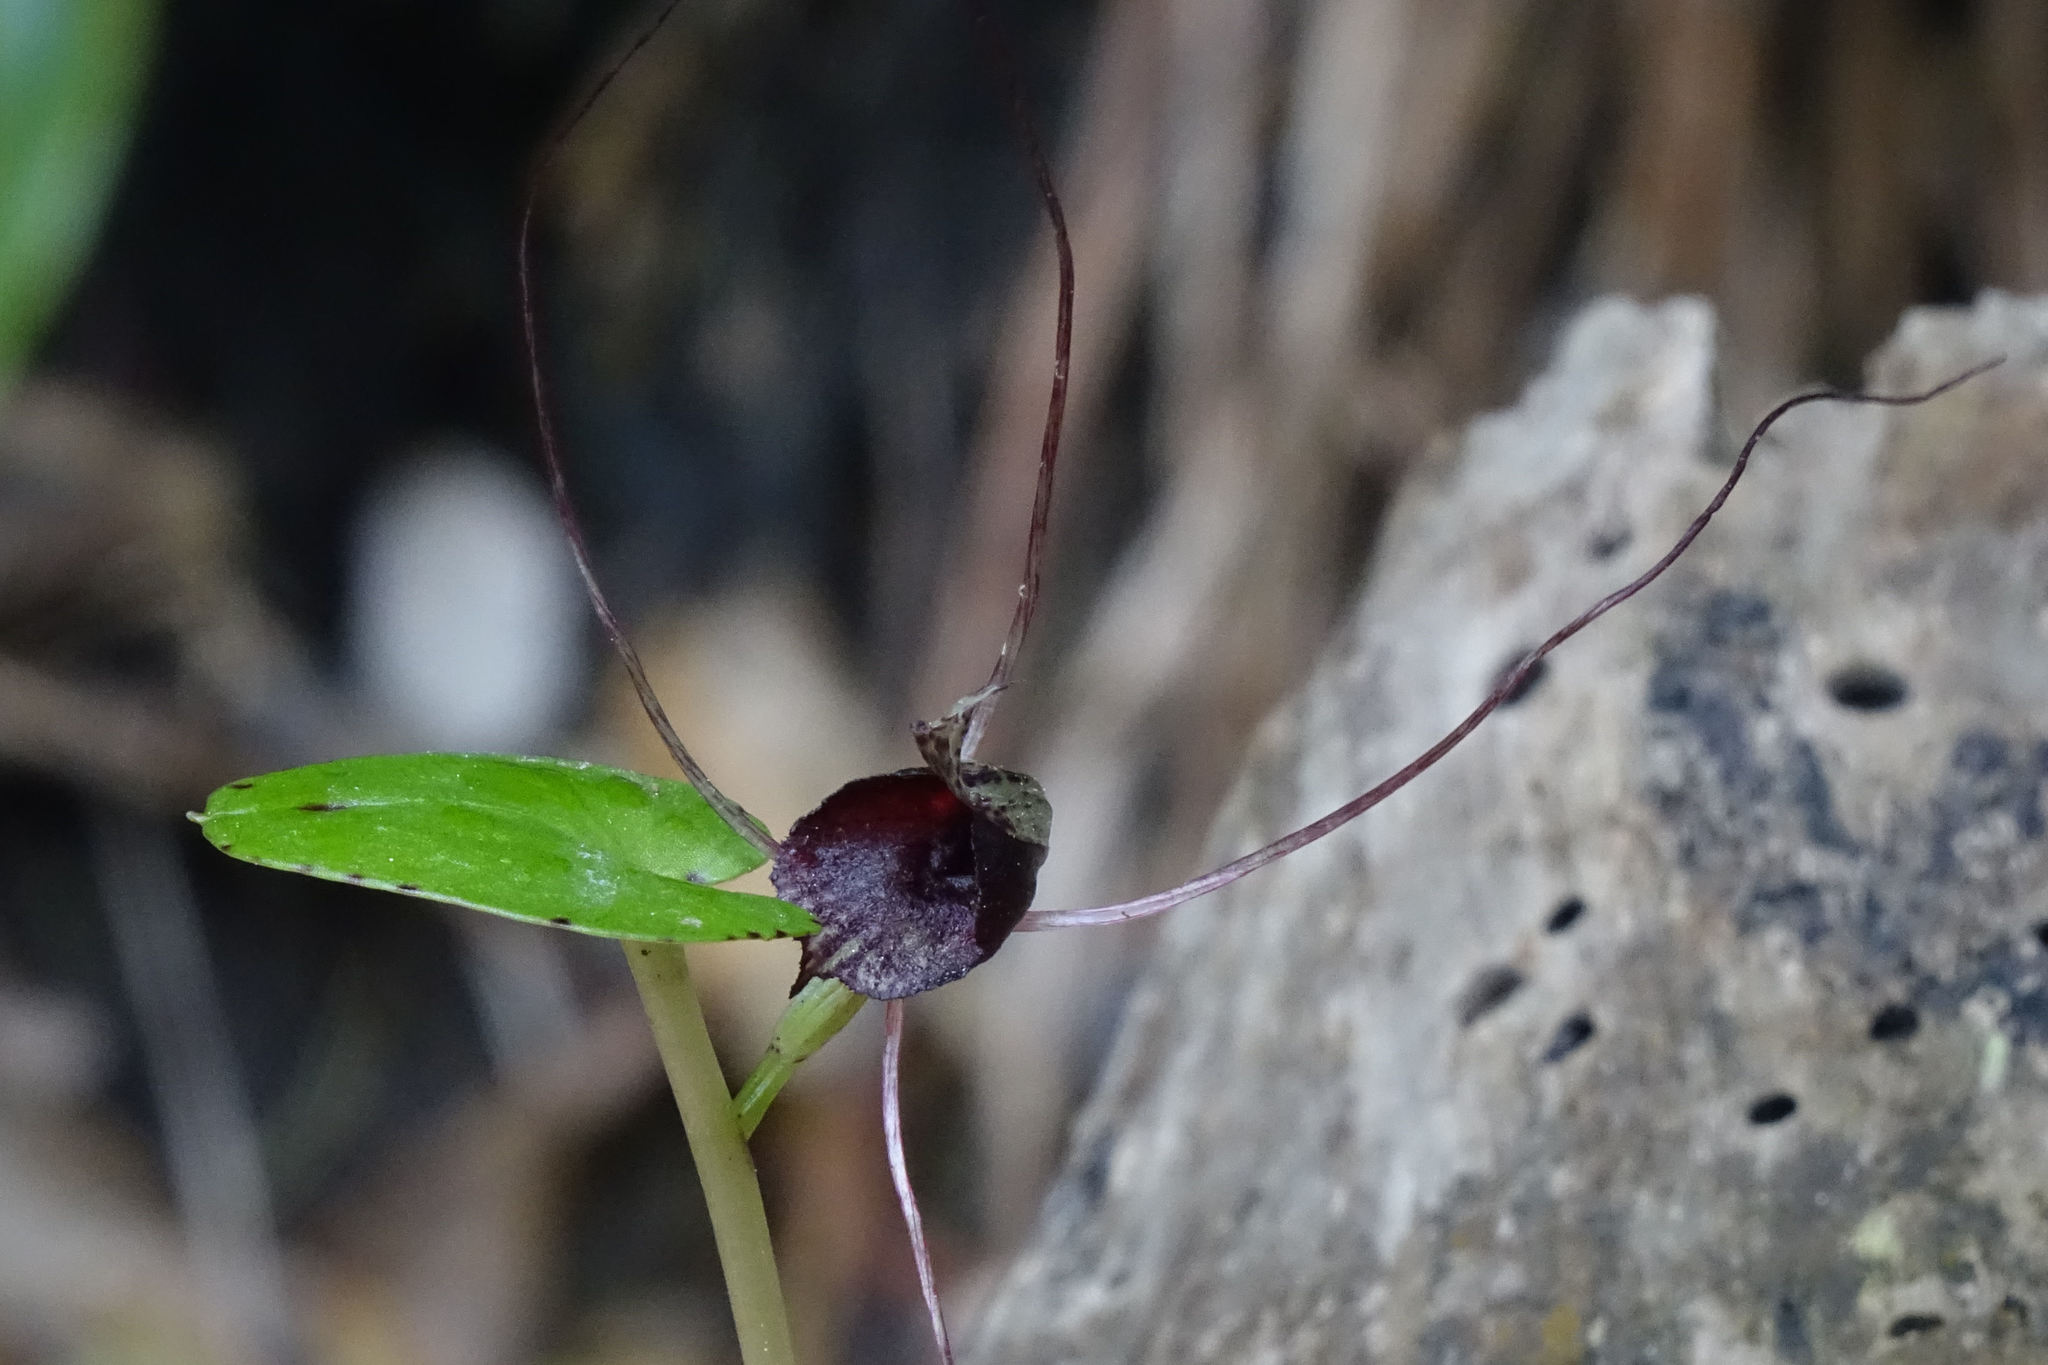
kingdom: Plantae
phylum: Tracheophyta
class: Liliopsida
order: Asparagales
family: Orchidaceae
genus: Corybas
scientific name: Corybas macranthus
